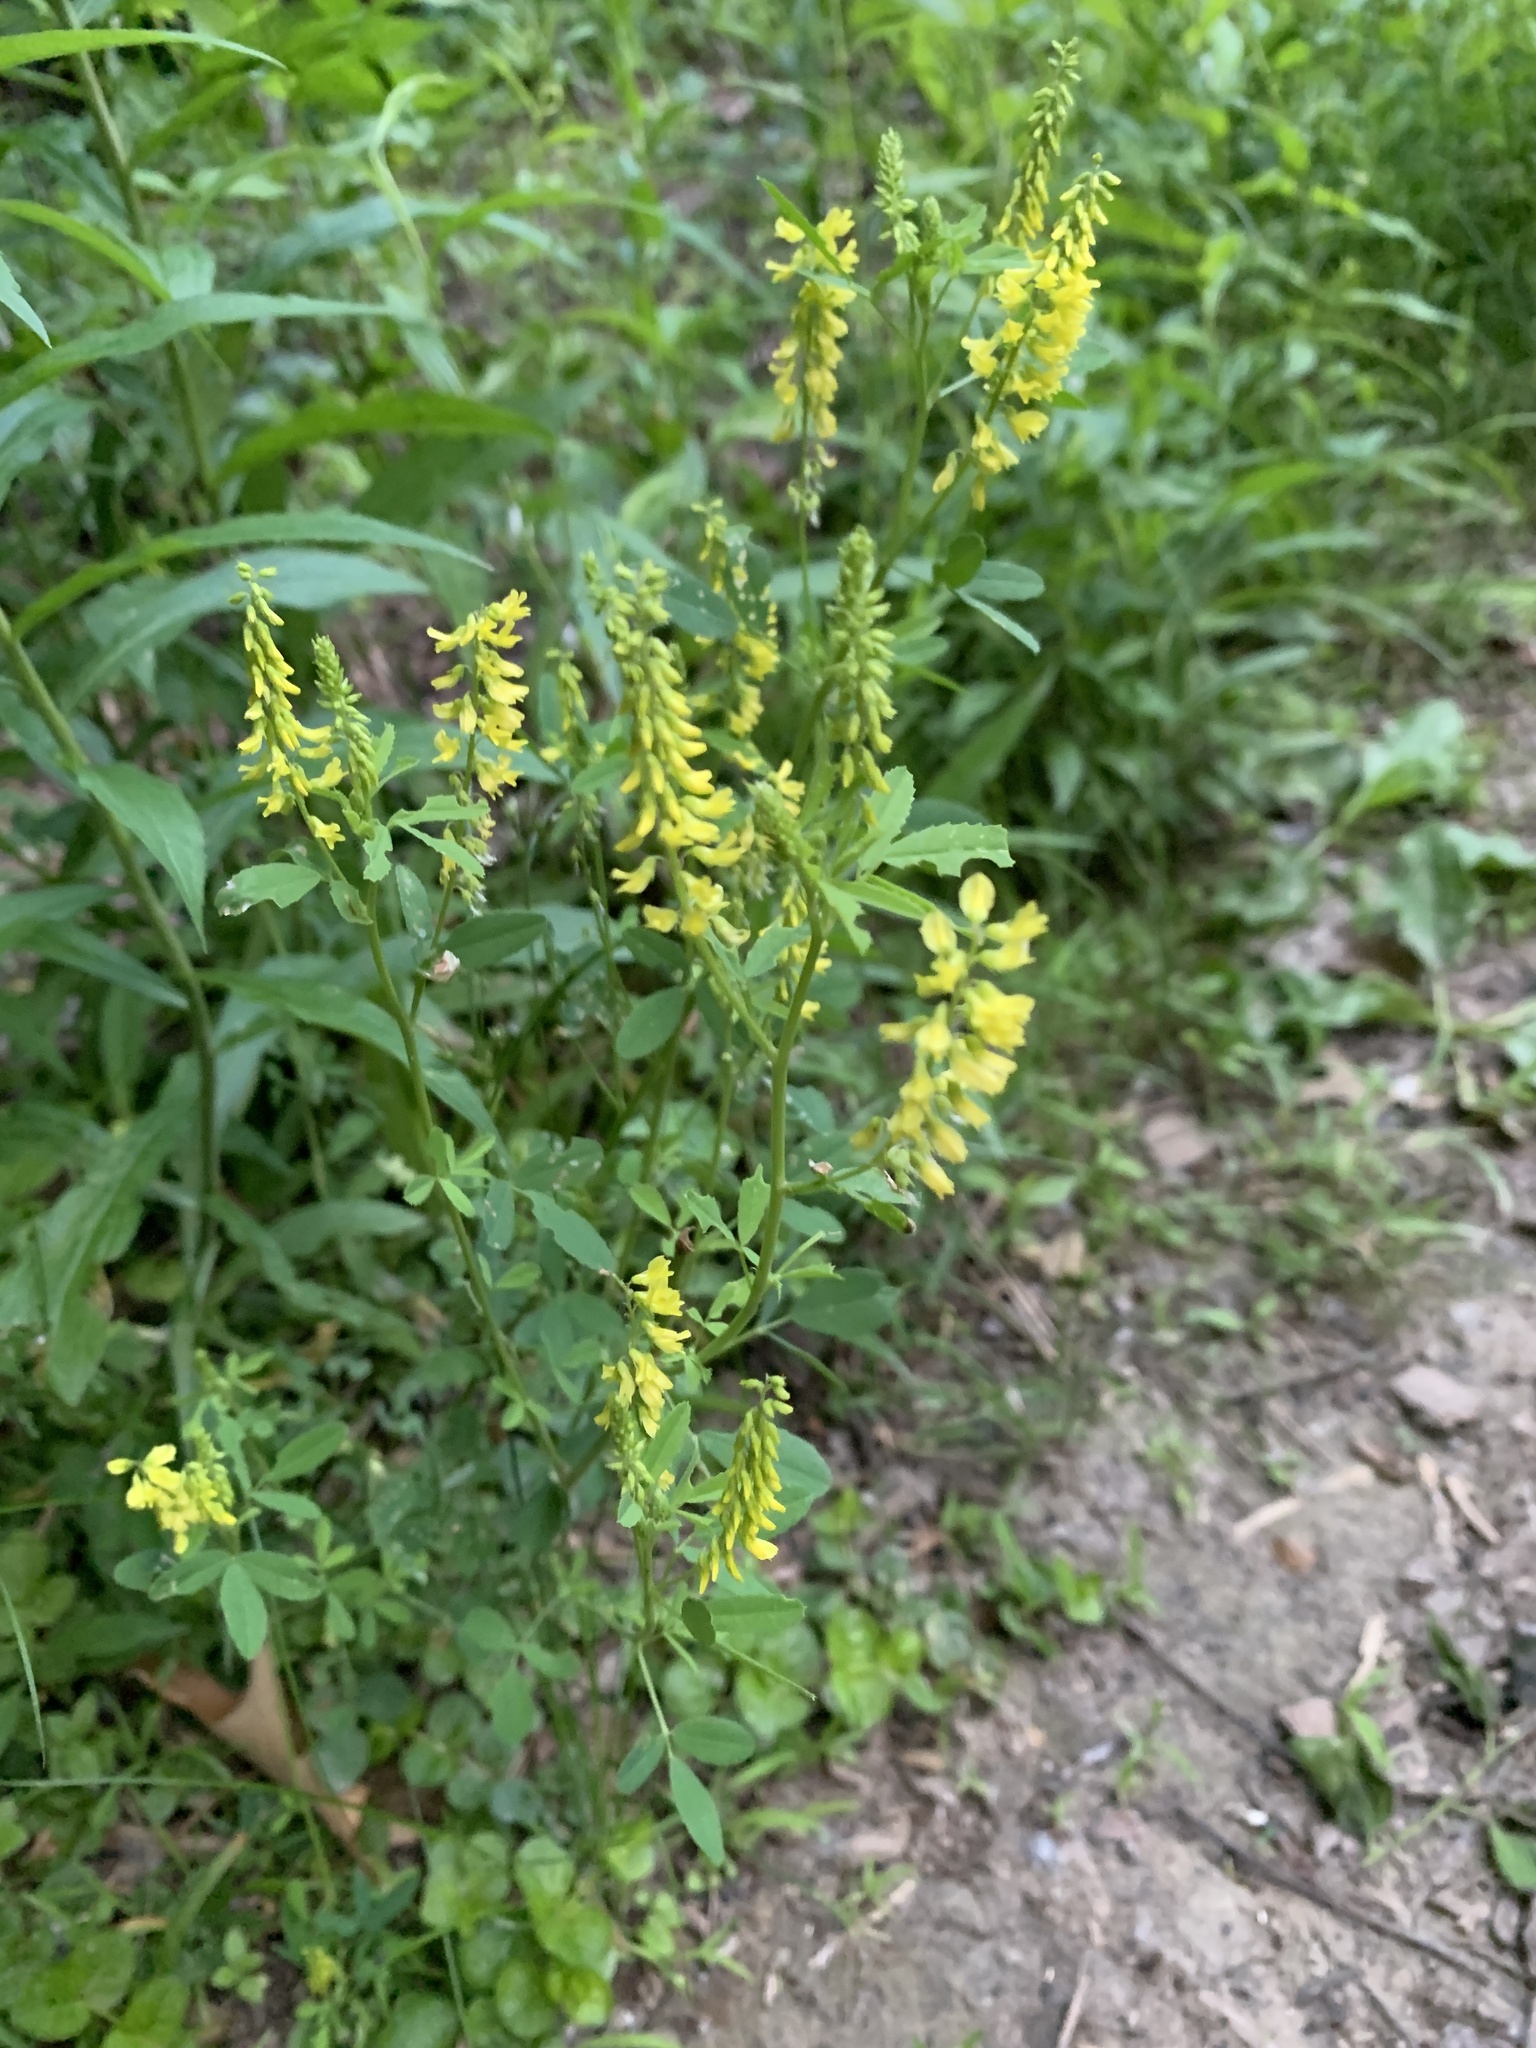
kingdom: Plantae
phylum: Tracheophyta
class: Magnoliopsida
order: Fabales
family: Fabaceae
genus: Melilotus
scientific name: Melilotus officinalis
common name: Sweetclover
